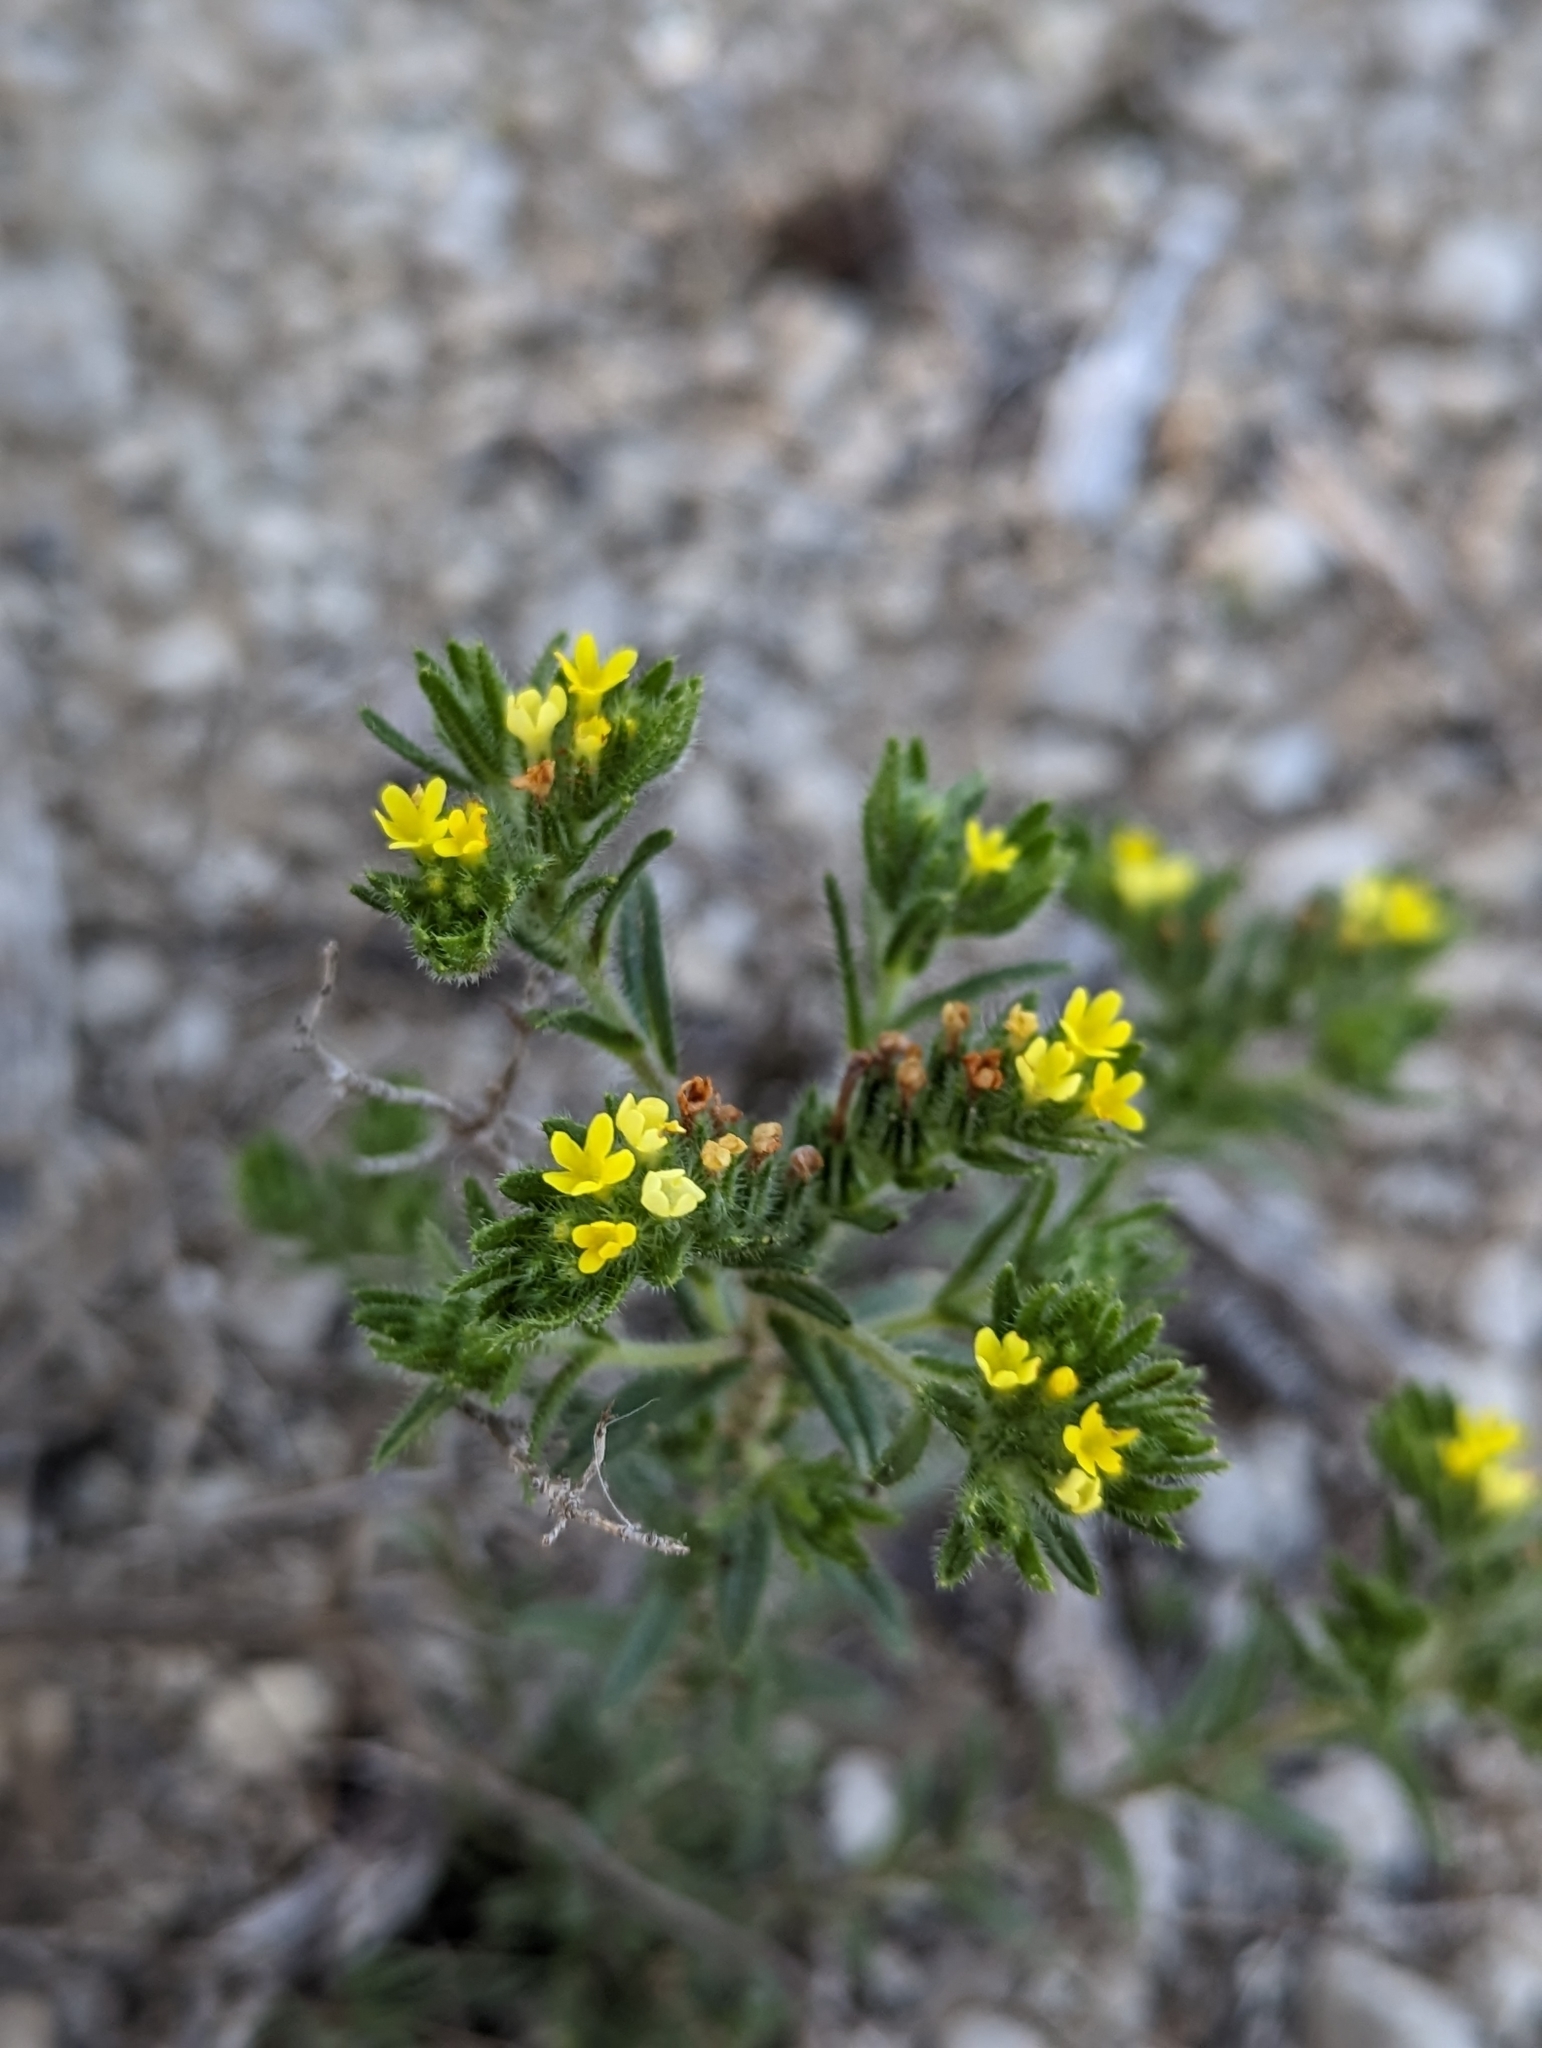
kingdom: Plantae
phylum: Tracheophyta
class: Magnoliopsida
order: Boraginales
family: Boraginaceae
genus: Neatostema
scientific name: Neatostema apulum
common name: Hairy sheepweed
